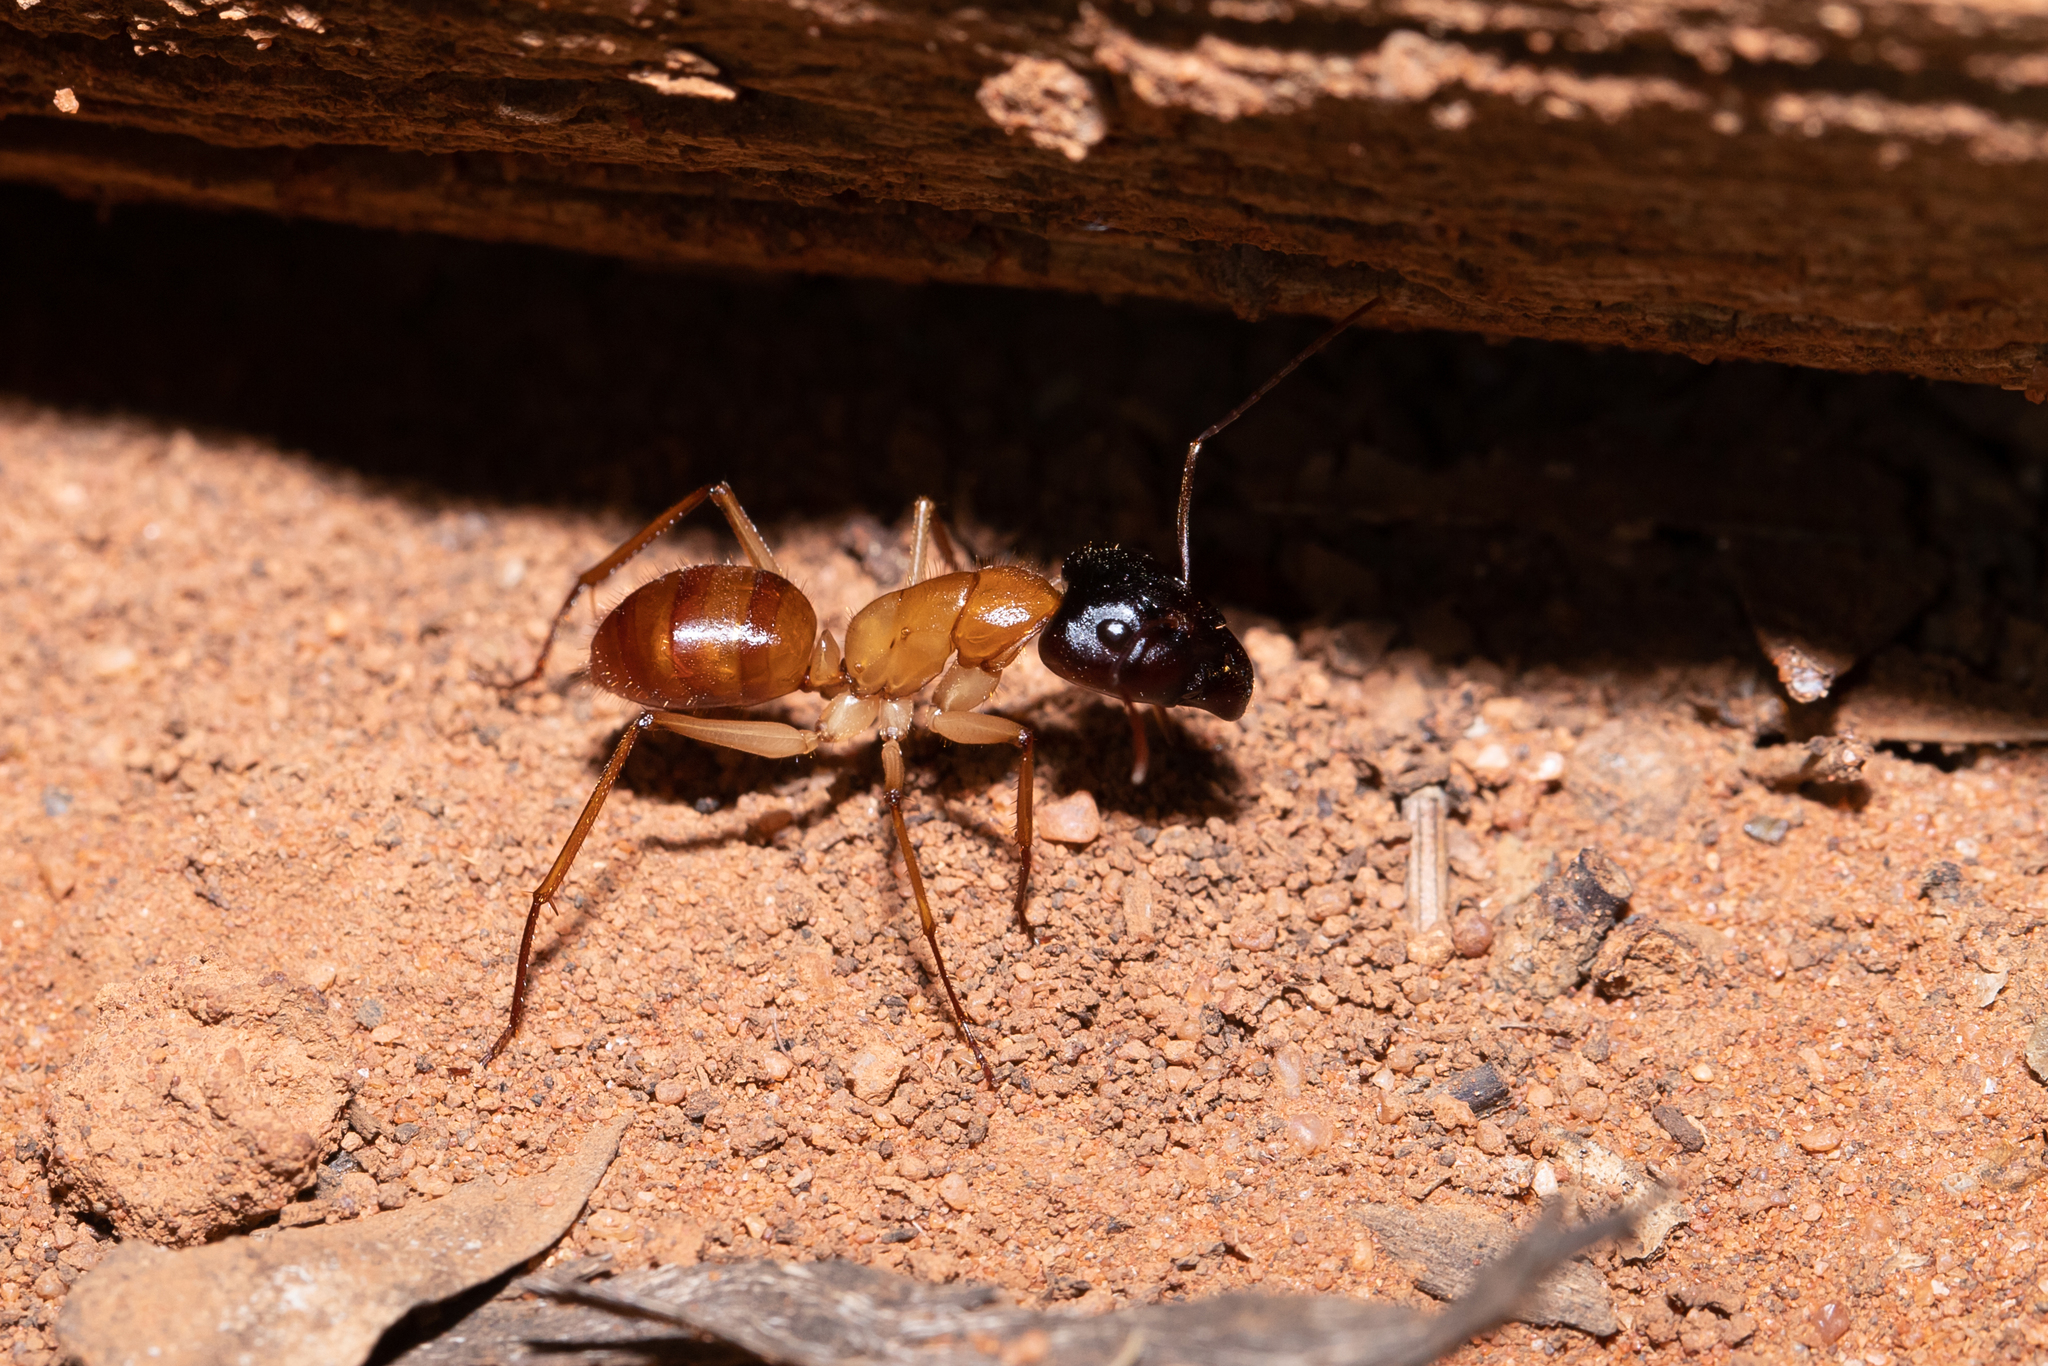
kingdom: Animalia
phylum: Arthropoda
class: Insecta
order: Hymenoptera
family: Formicidae
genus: Camponotus
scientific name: Camponotus nigriceps
